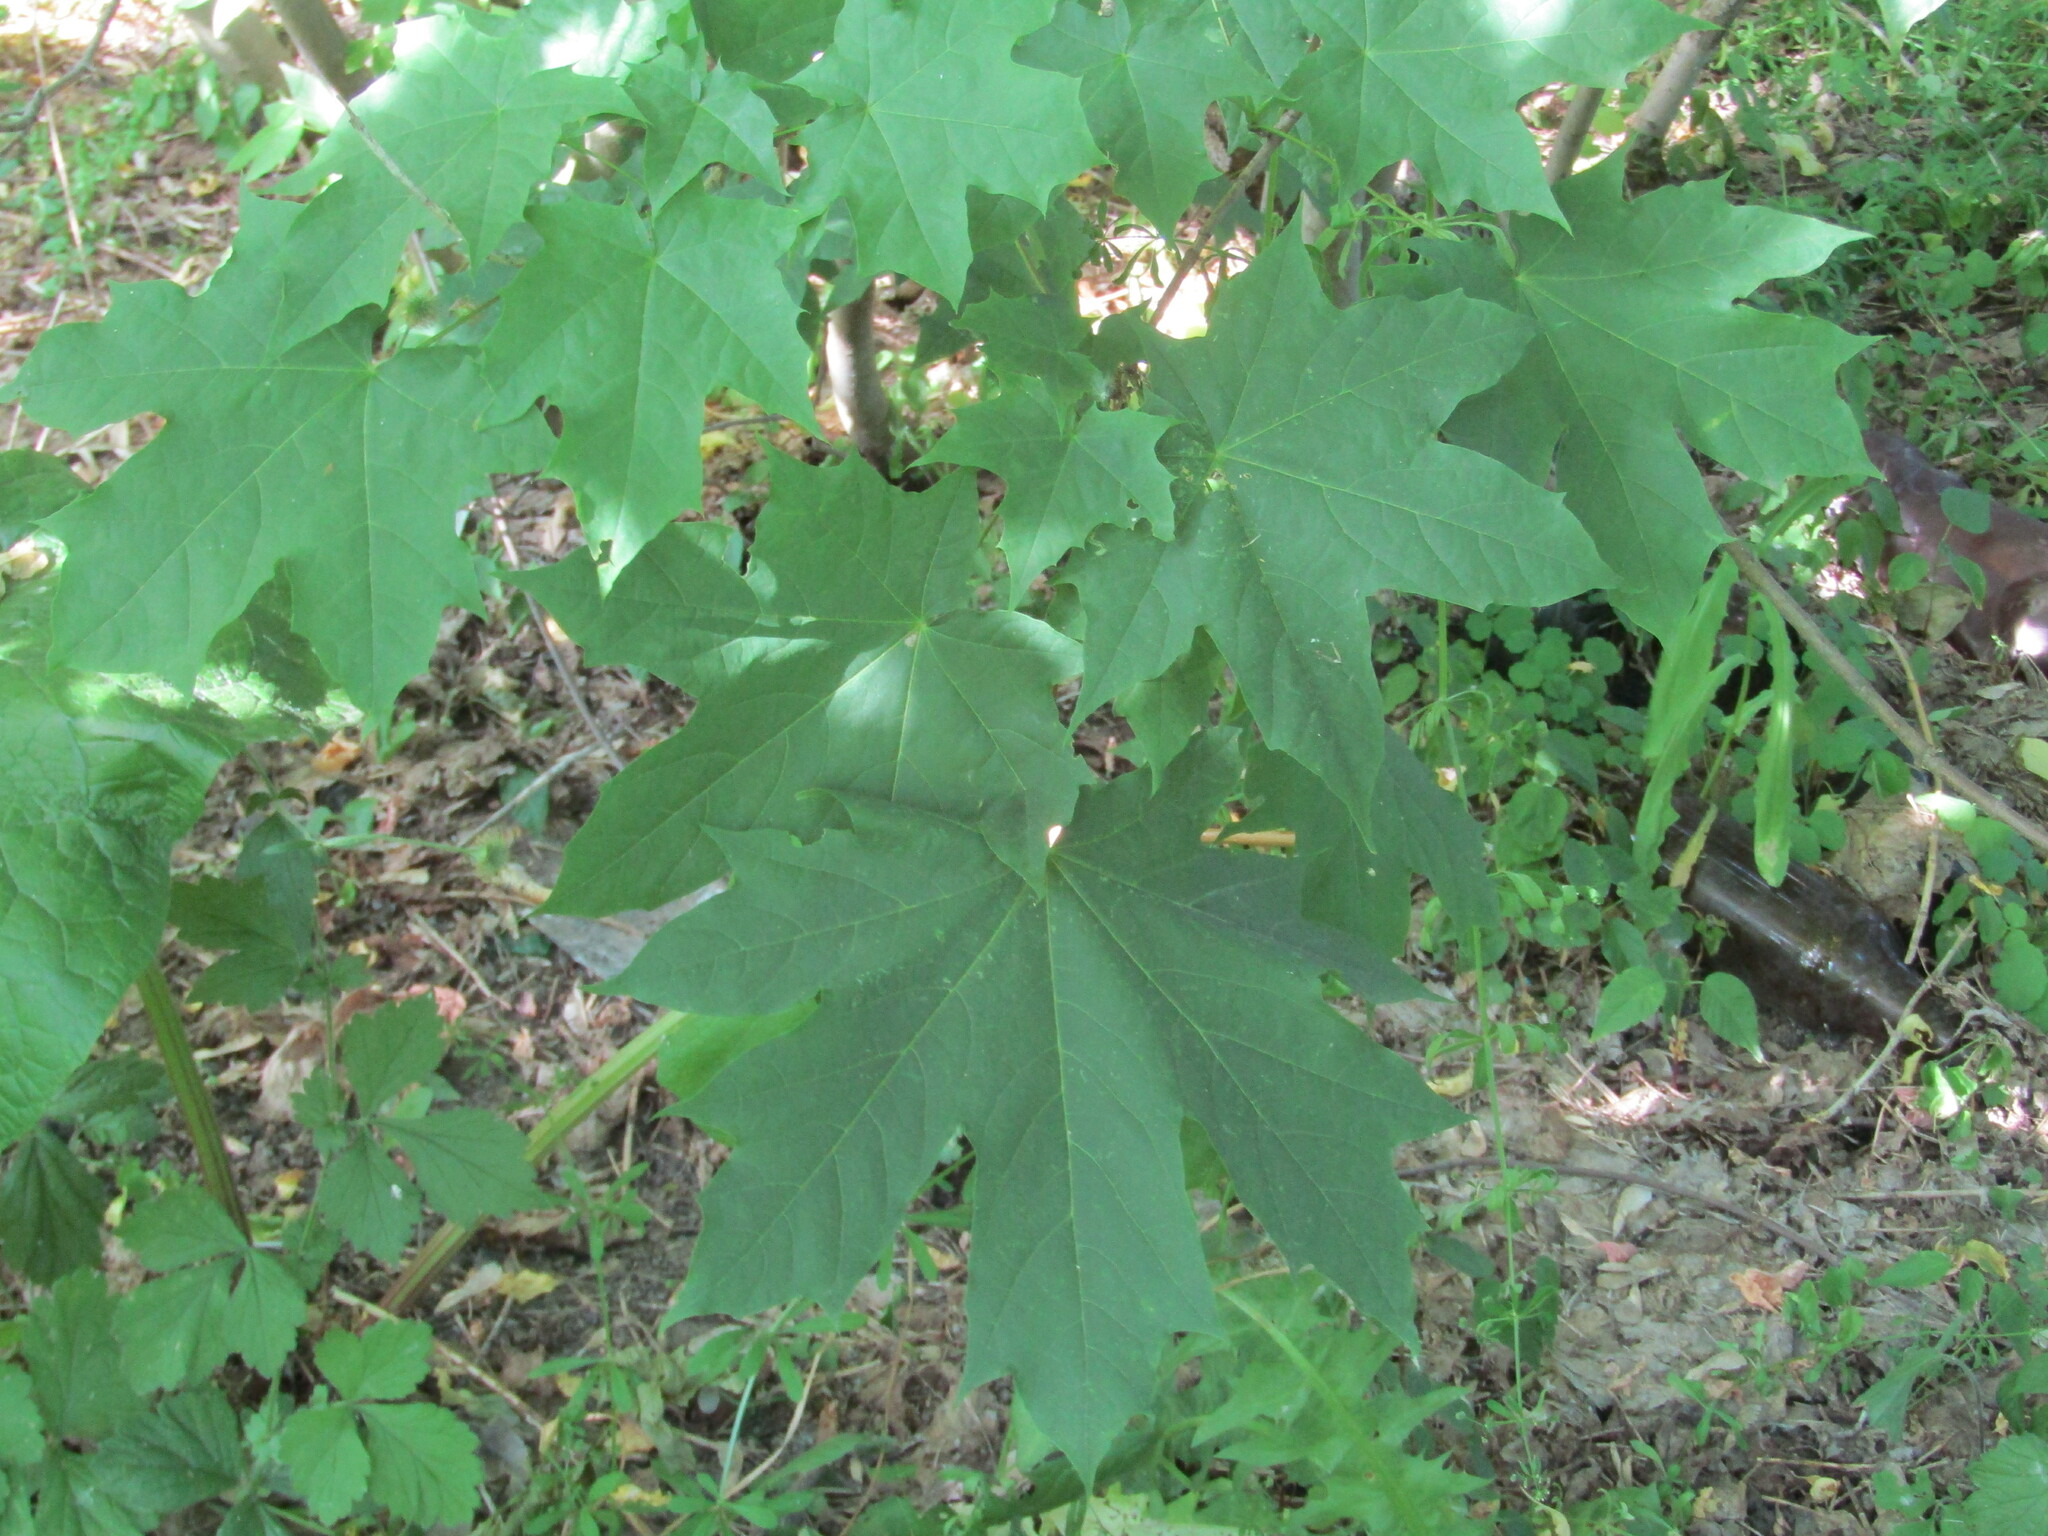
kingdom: Plantae
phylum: Tracheophyta
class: Magnoliopsida
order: Sapindales
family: Sapindaceae
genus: Acer
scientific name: Acer platanoides
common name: Norway maple
